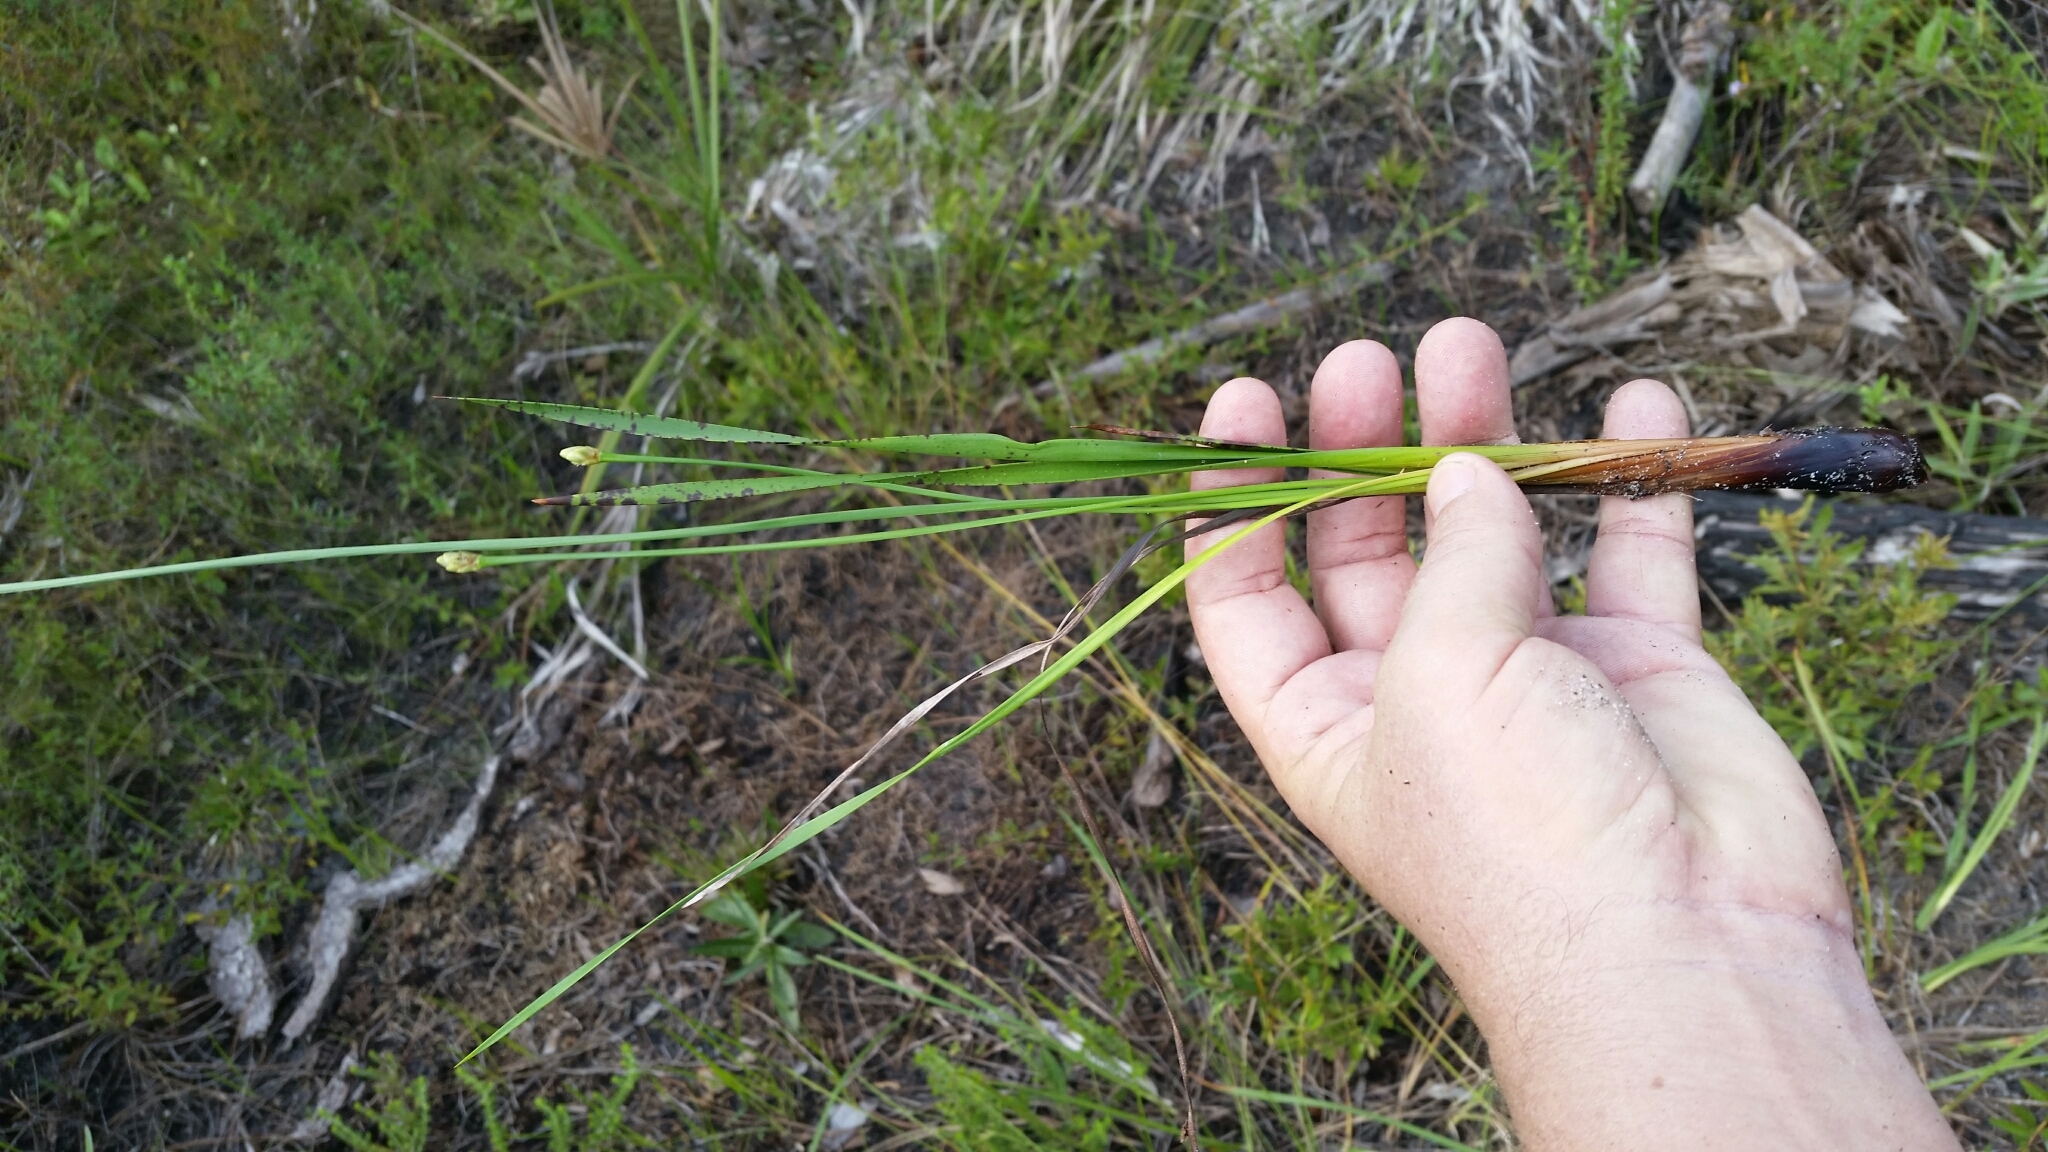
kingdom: Plantae
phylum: Tracheophyta
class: Liliopsida
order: Poales
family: Xyridaceae
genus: Xyris
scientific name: Xyris caroliniana
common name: Carolina yellow-eyed-grass
